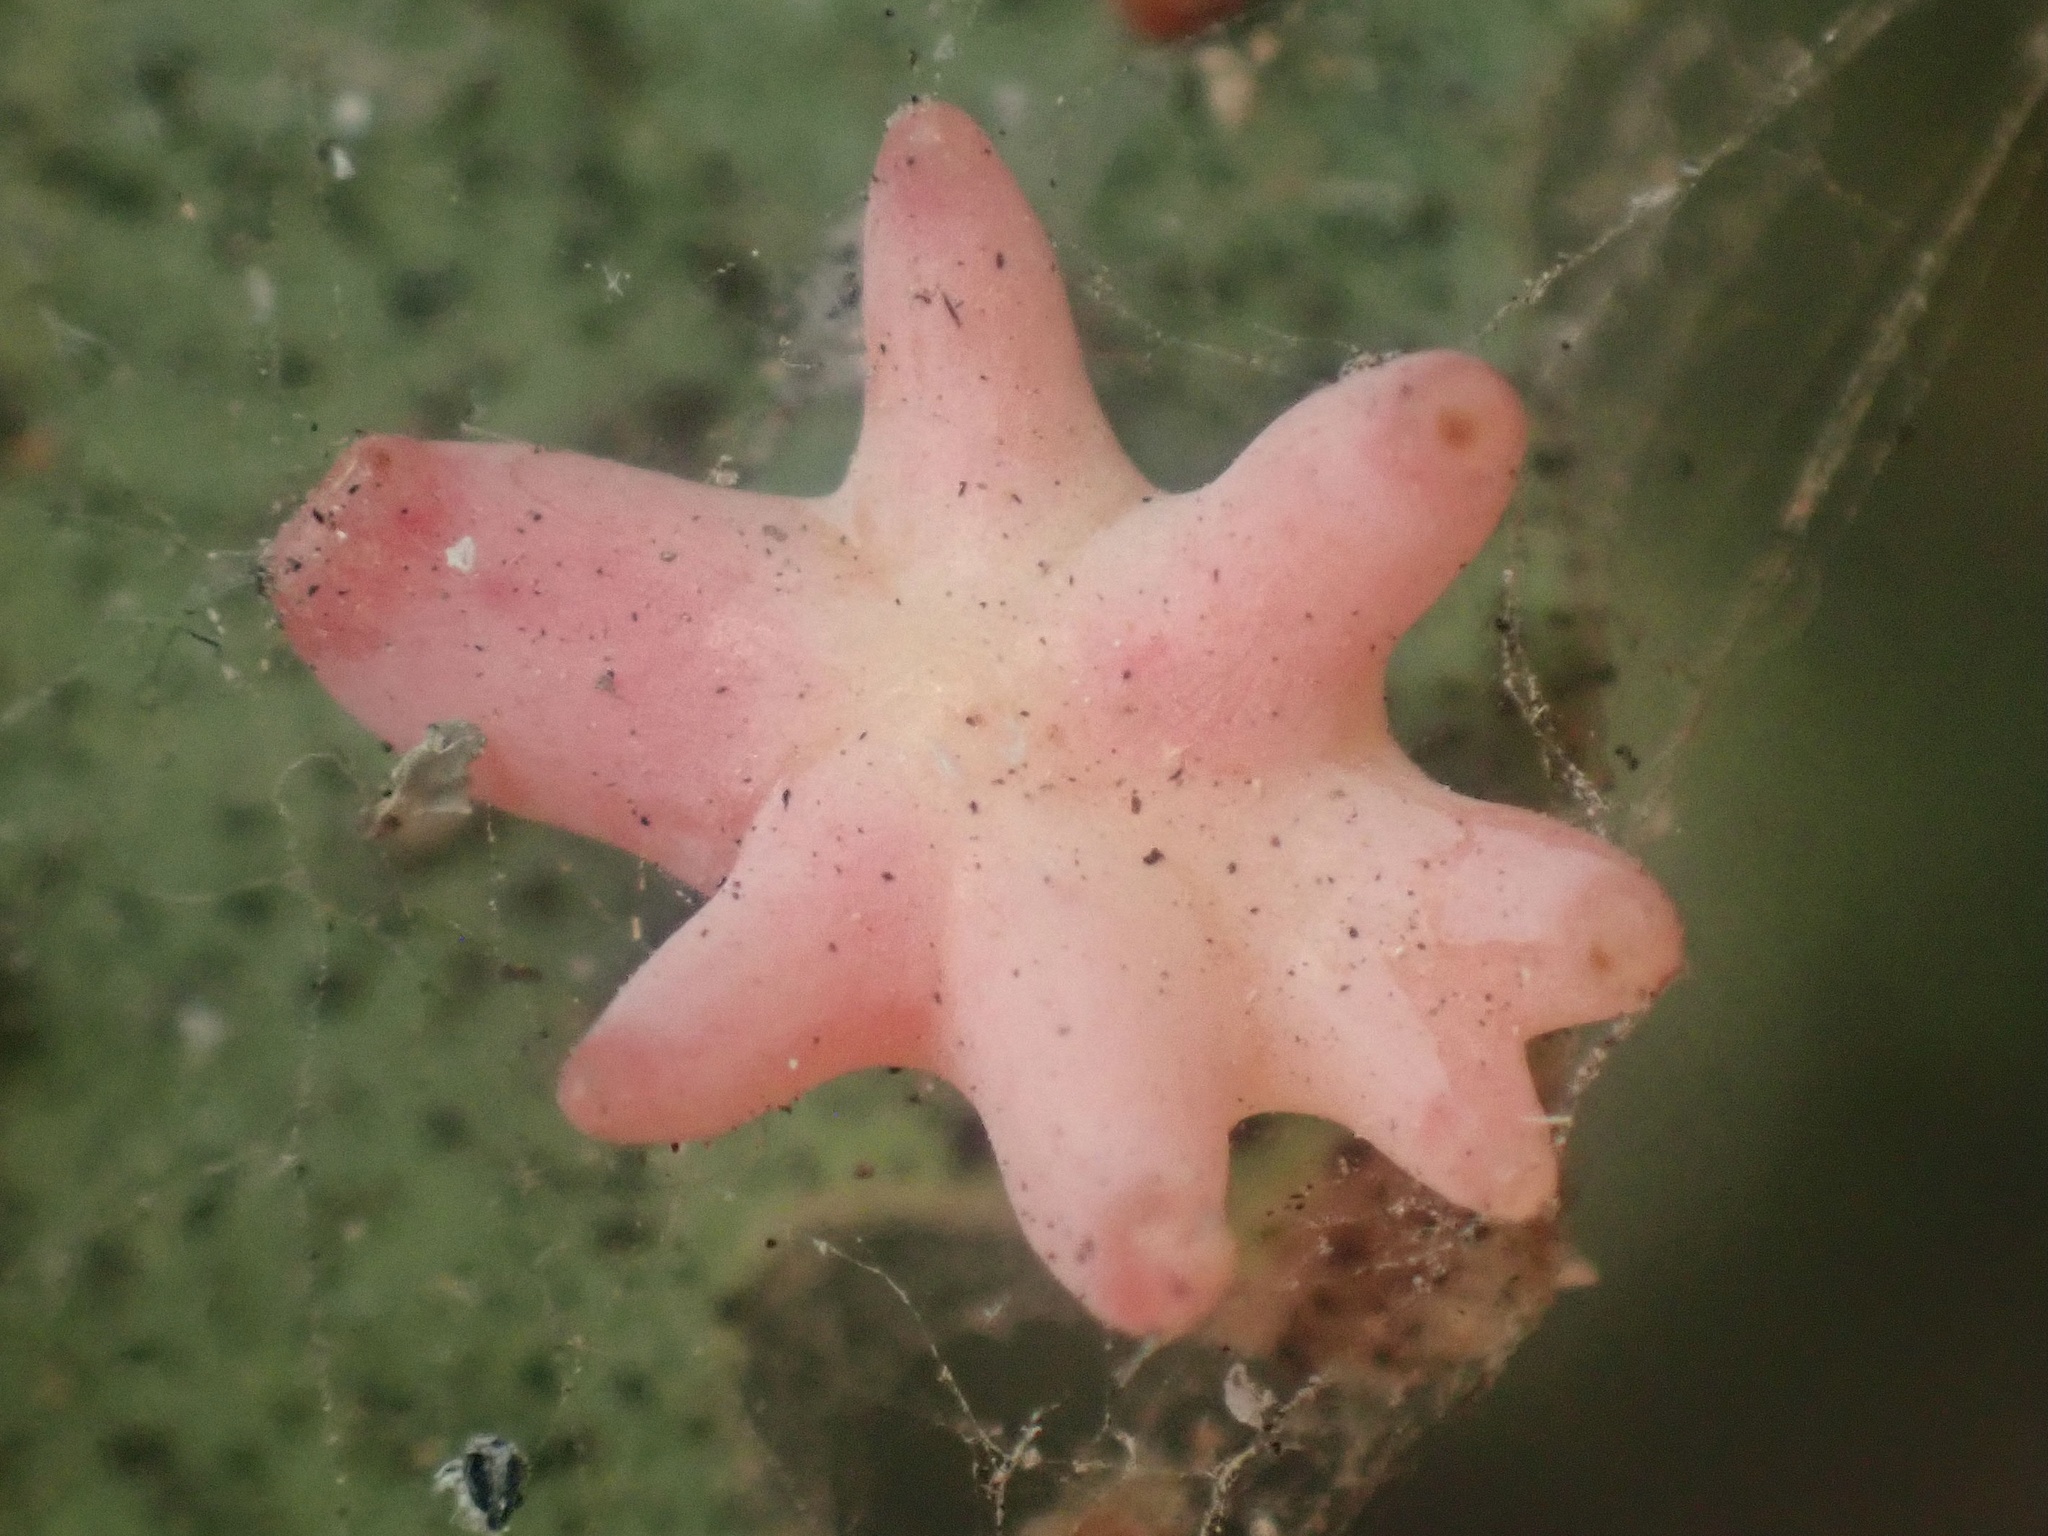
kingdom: Animalia
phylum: Arthropoda
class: Insecta
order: Hymenoptera
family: Cynipidae
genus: Cynips
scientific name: Cynips douglasi
